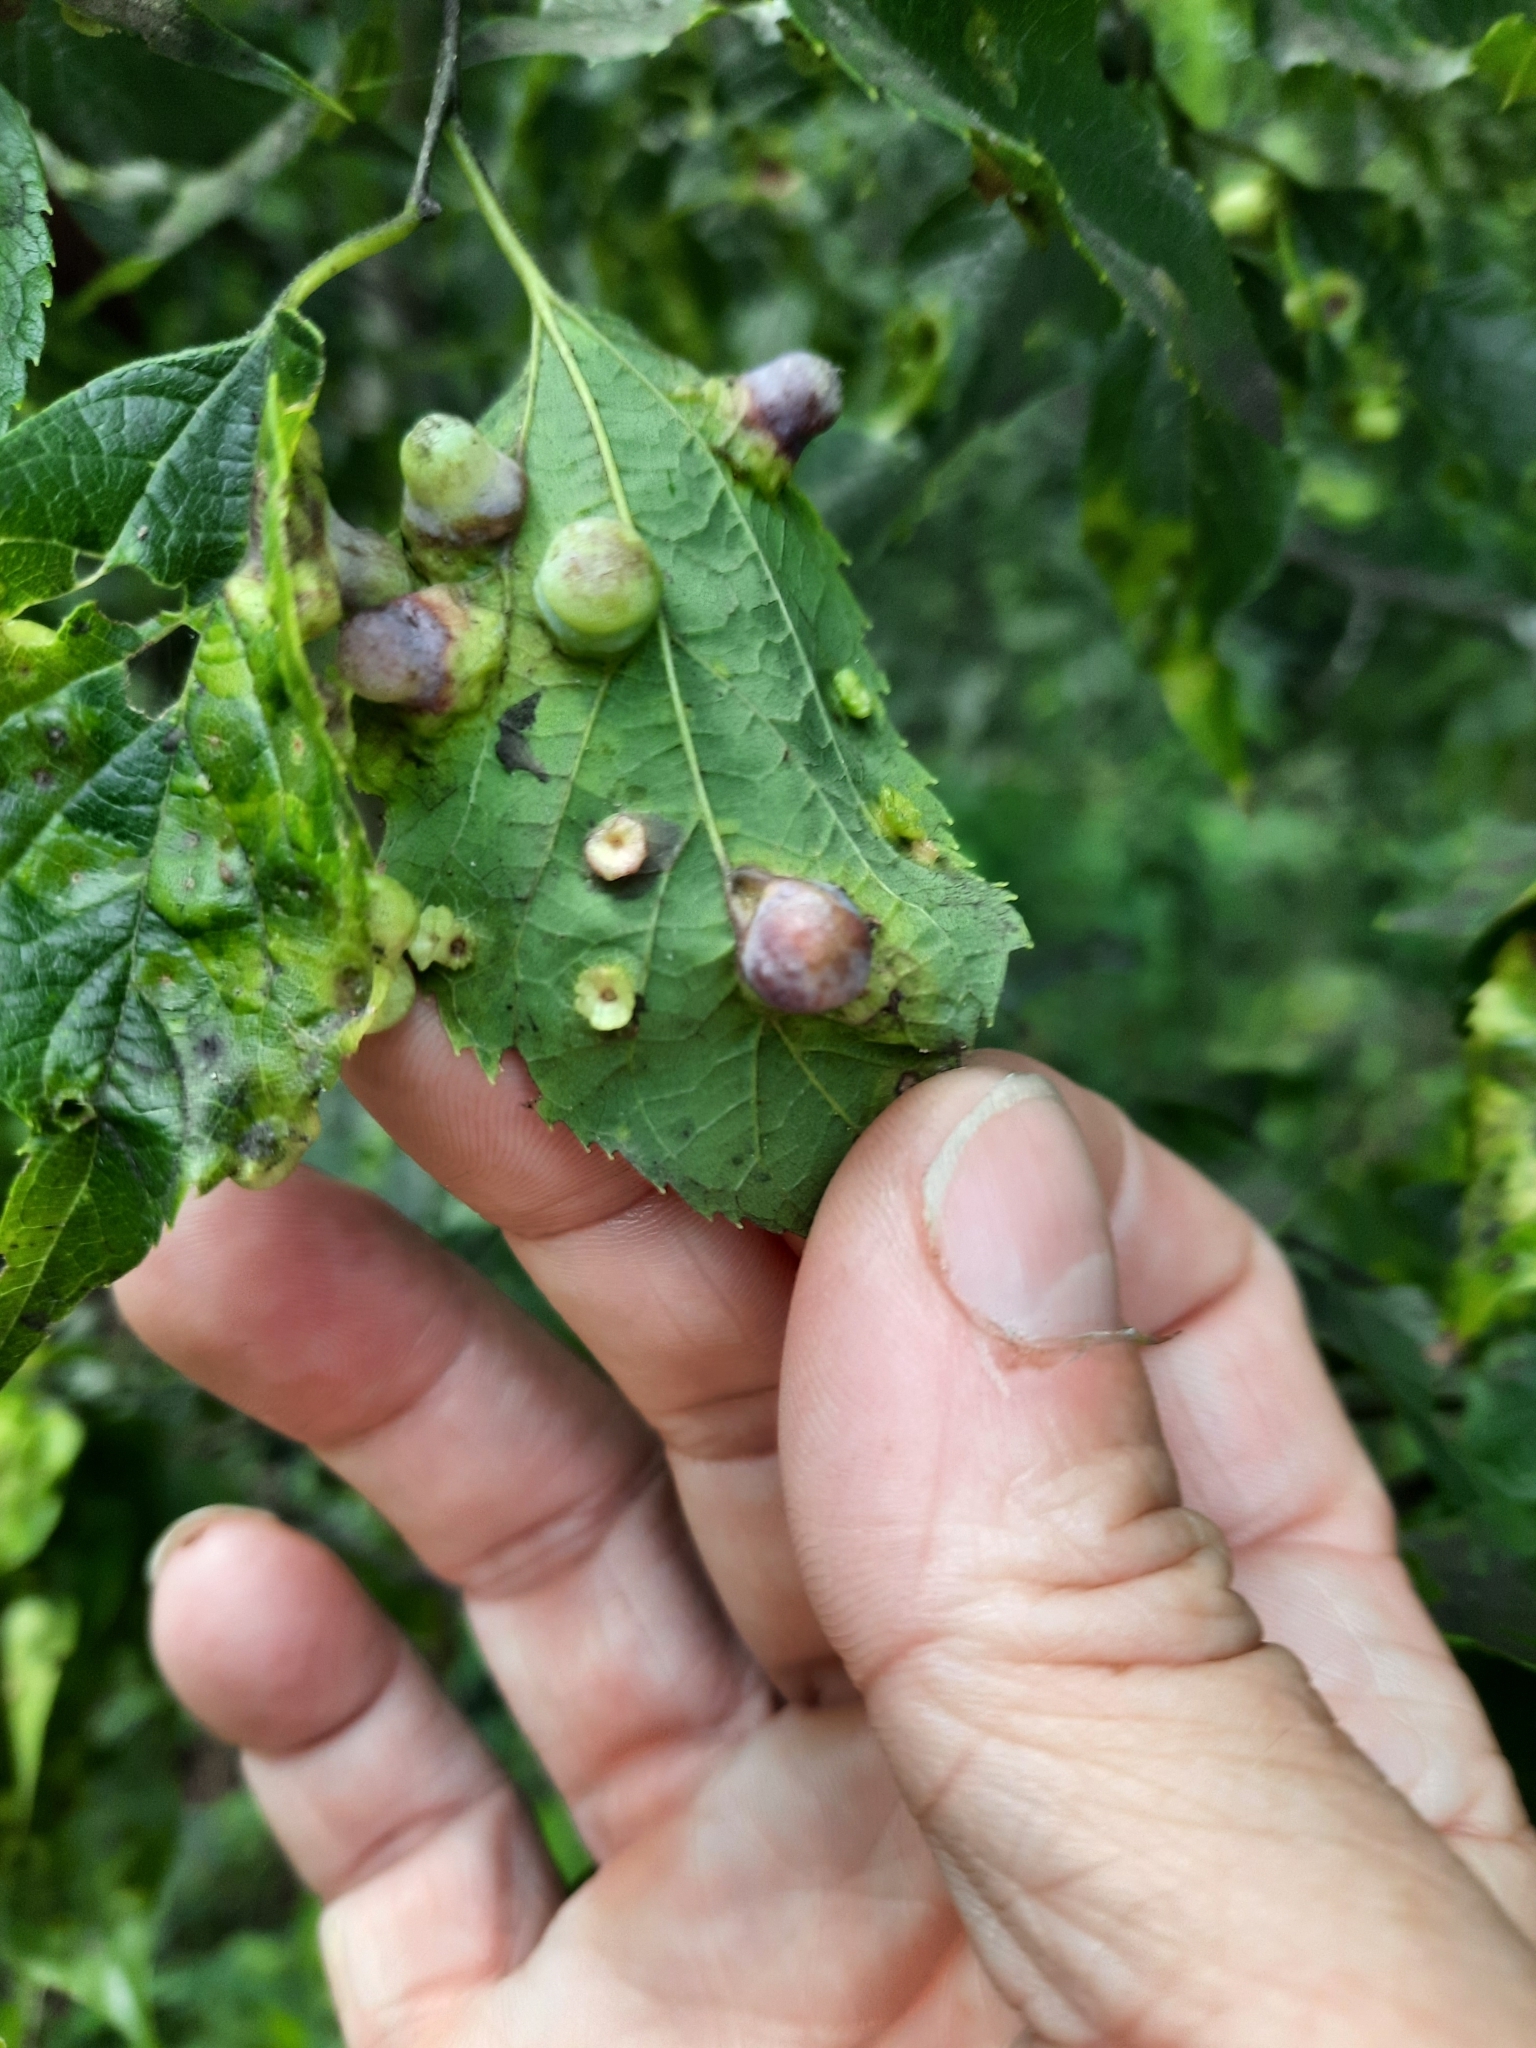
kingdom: Animalia
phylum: Arthropoda
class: Insecta
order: Hemiptera
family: Aphalaridae
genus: Pachypsylla
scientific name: Pachypsylla celtidismamma
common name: Hackberry nipplegall psyllid
